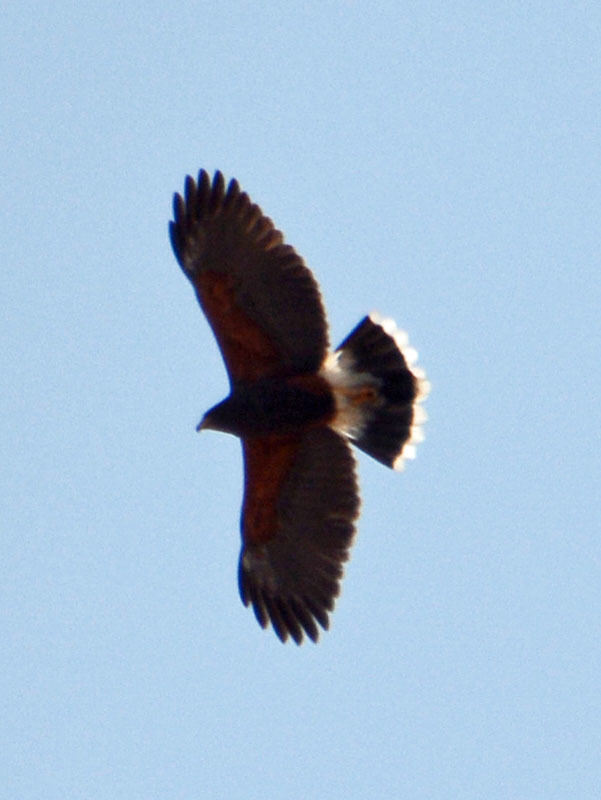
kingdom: Animalia
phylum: Chordata
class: Aves
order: Accipitriformes
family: Accipitridae
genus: Parabuteo
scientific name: Parabuteo unicinctus
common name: Harris's hawk
